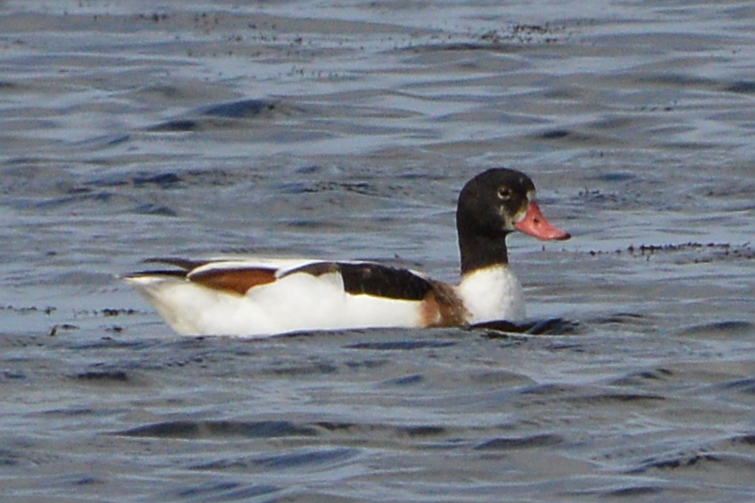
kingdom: Animalia
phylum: Chordata
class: Aves
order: Anseriformes
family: Anatidae
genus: Tadorna
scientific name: Tadorna tadorna
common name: Common shelduck
